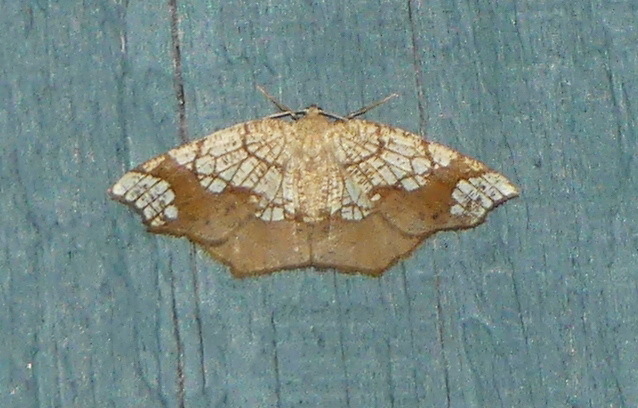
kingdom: Animalia
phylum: Arthropoda
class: Insecta
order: Lepidoptera
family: Geometridae
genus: Nematocampa
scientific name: Nematocampa resistaria
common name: Horned spanworm moth
